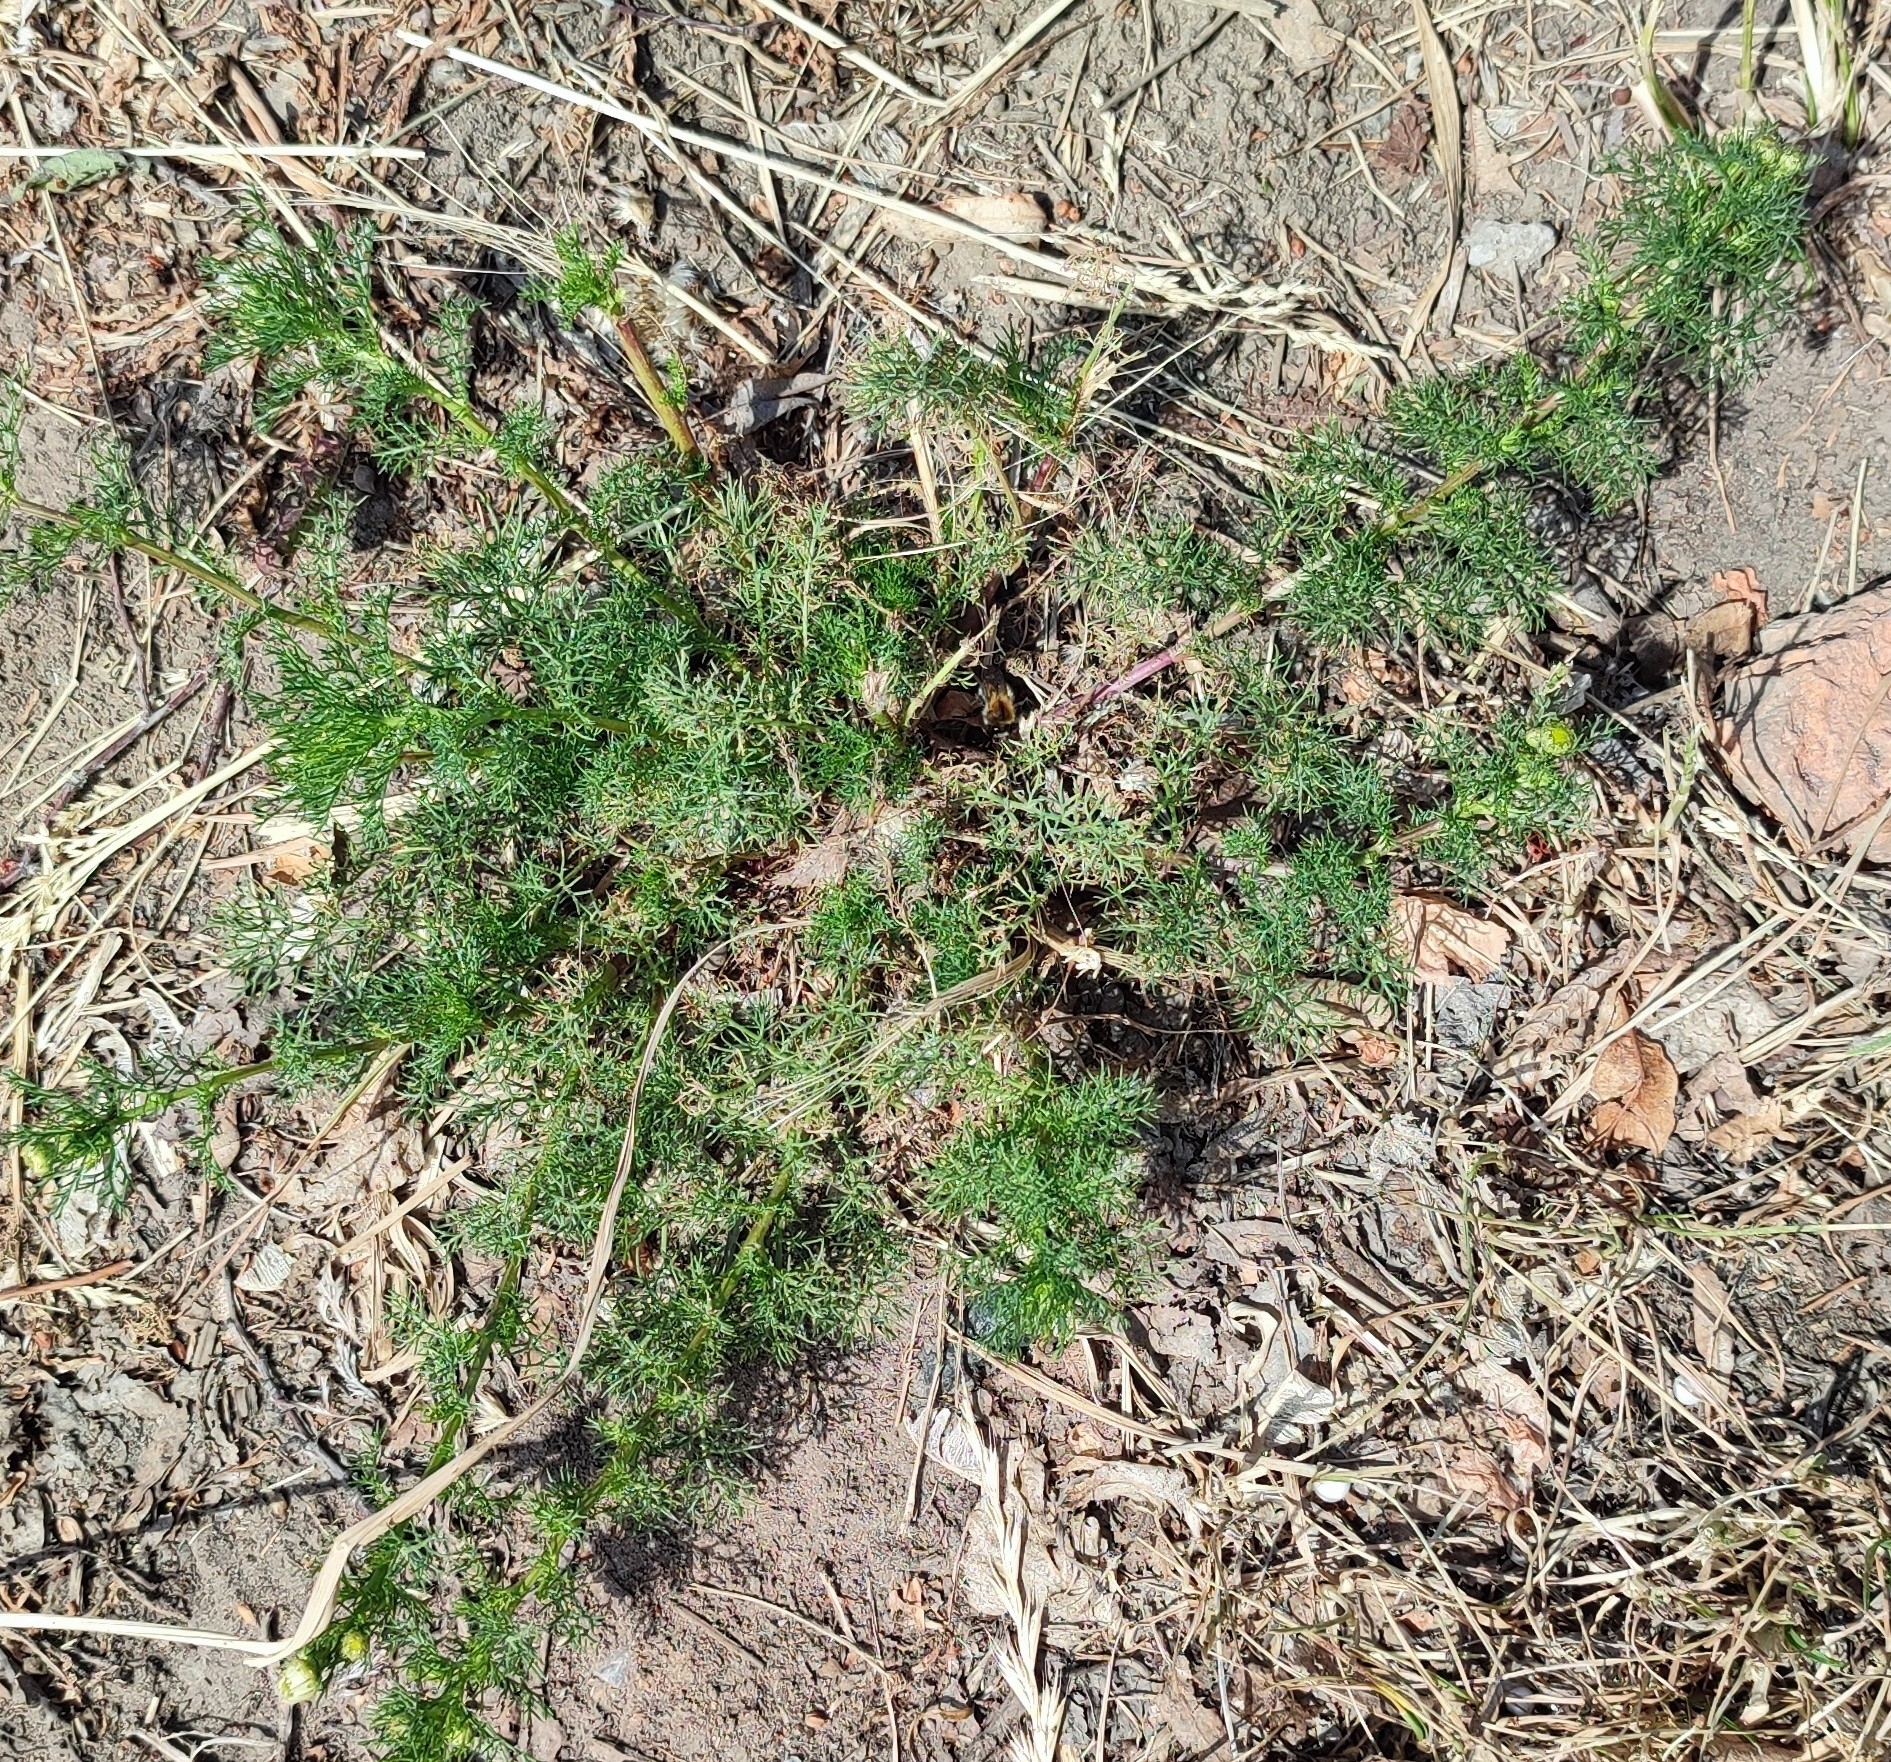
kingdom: Plantae
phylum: Tracheophyta
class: Magnoliopsida
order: Asterales
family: Asteraceae
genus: Tripleurospermum
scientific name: Tripleurospermum inodorum
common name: Scentless mayweed
